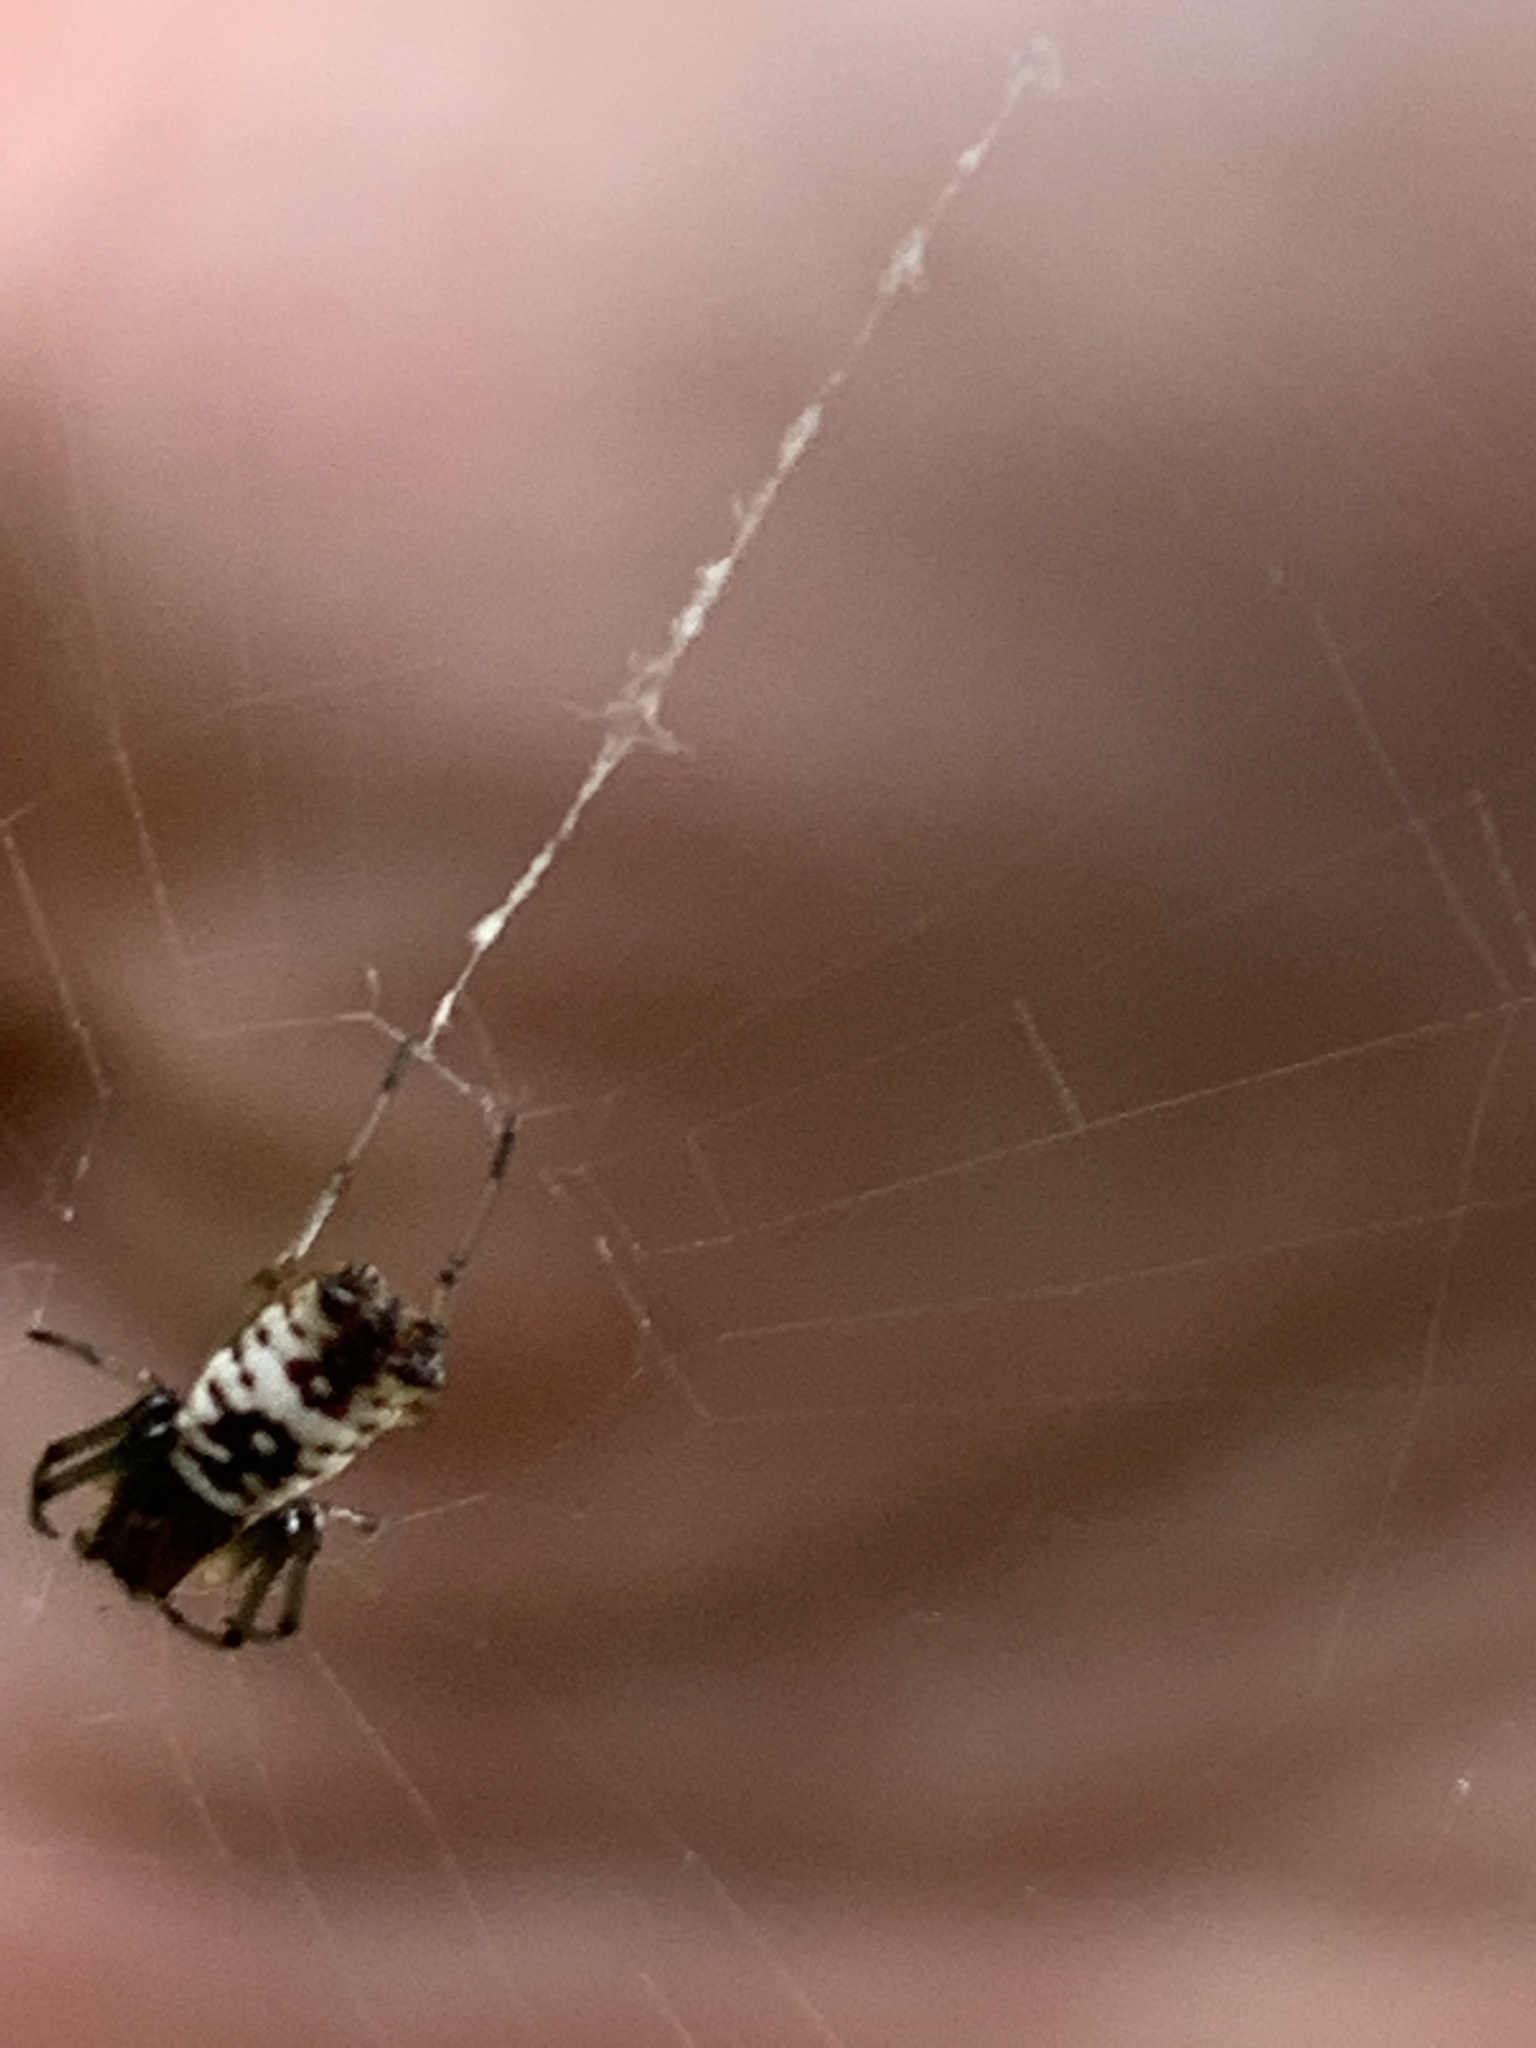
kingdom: Animalia
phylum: Arthropoda
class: Arachnida
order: Araneae
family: Araneidae
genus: Micrathena
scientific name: Micrathena mitrata
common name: Orb weavers
